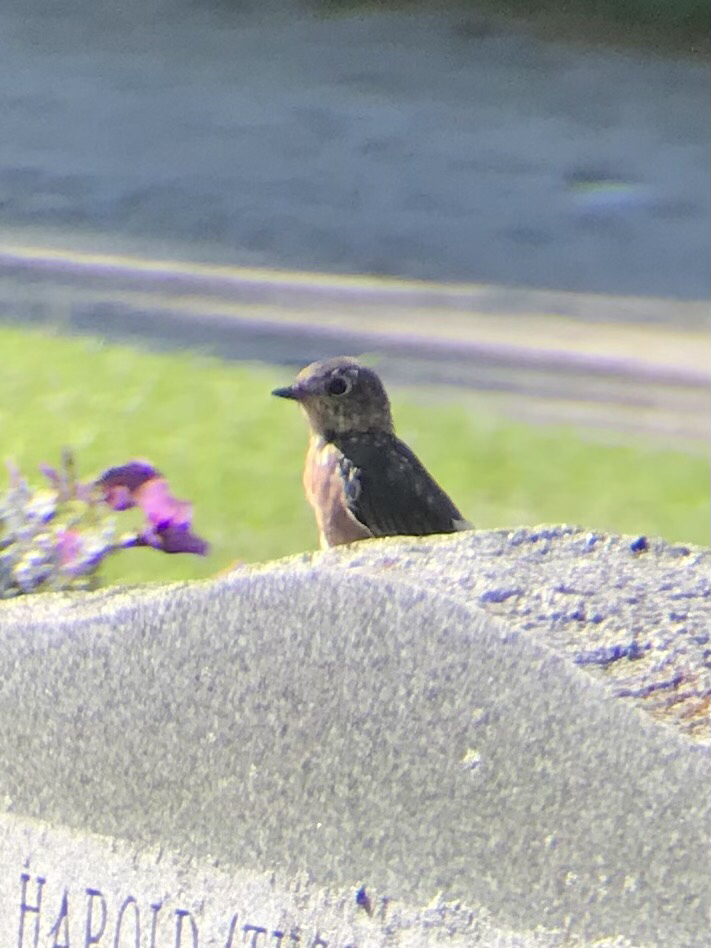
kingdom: Animalia
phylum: Chordata
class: Aves
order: Passeriformes
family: Turdidae
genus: Sialia
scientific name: Sialia sialis
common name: Eastern bluebird
